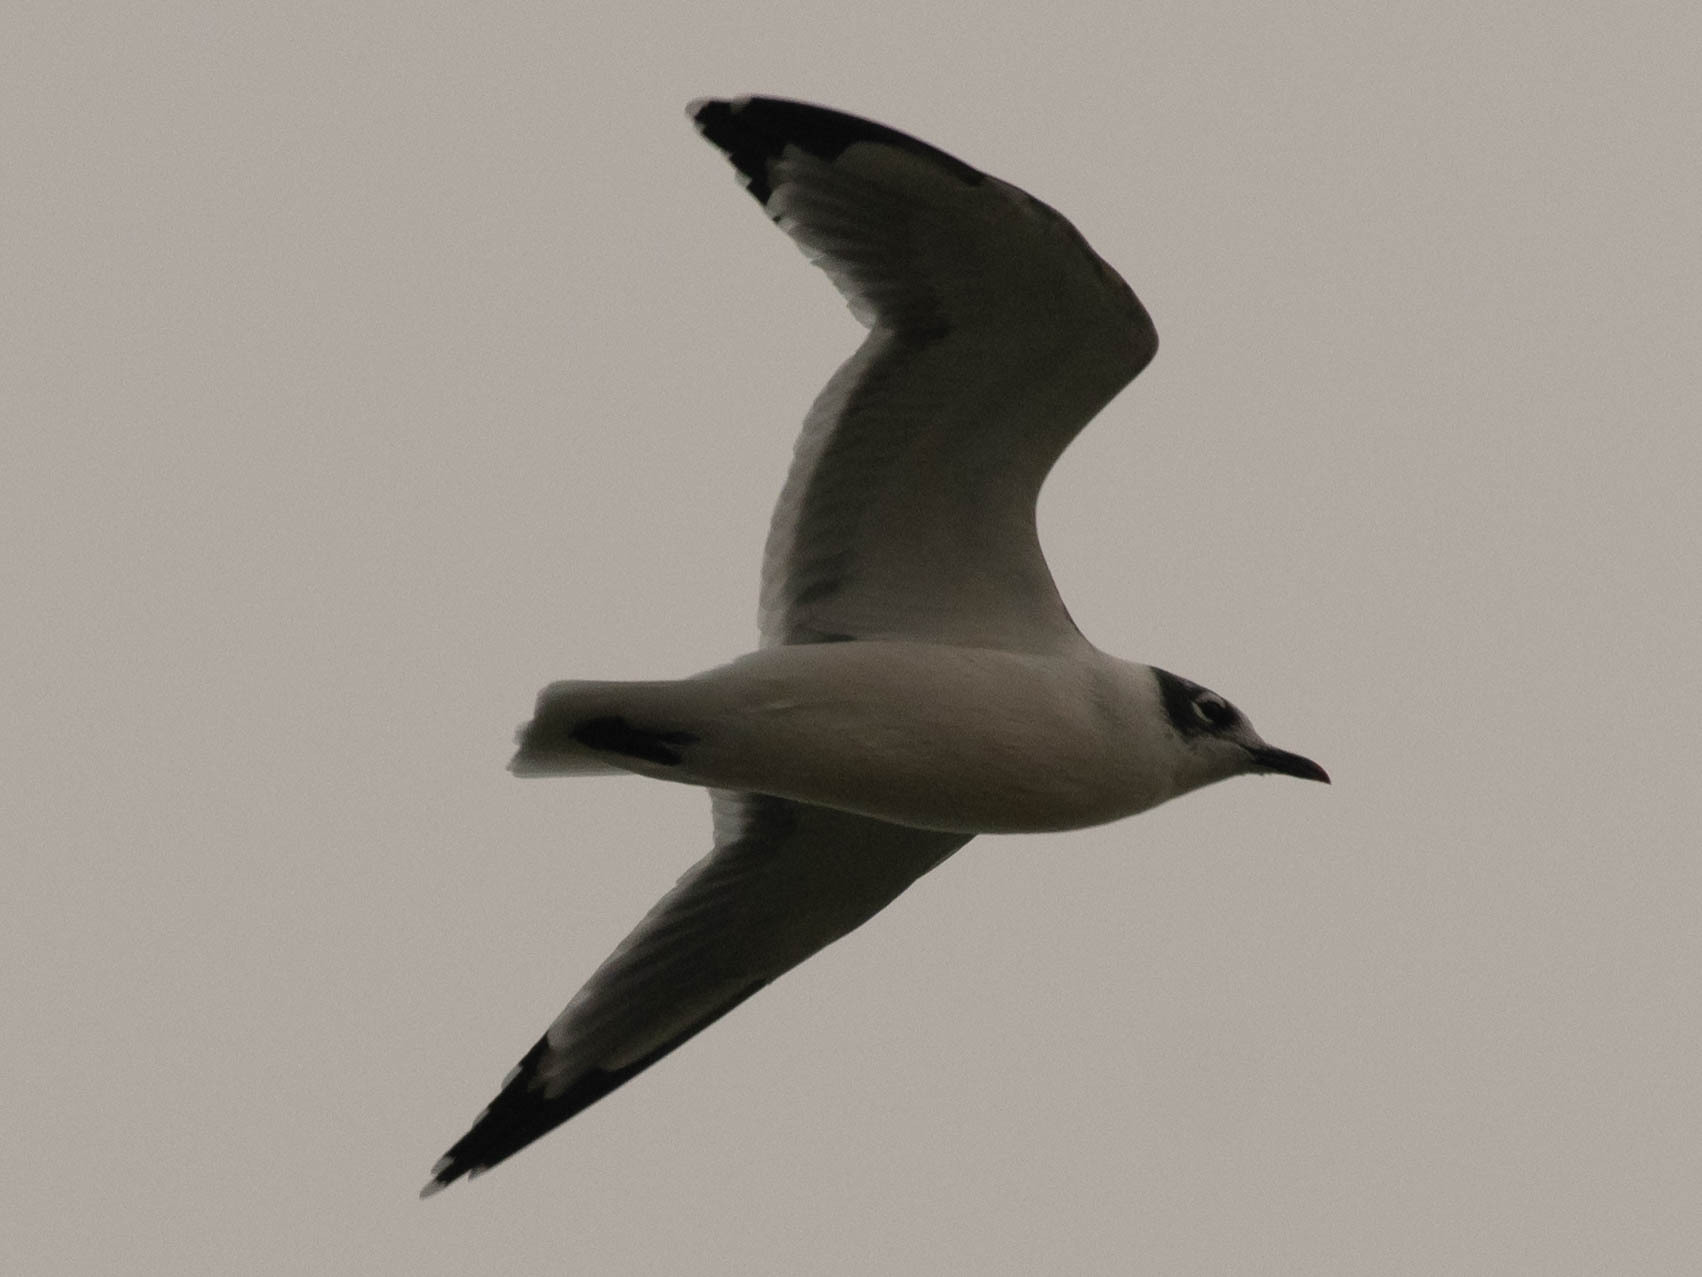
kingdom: Animalia
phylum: Chordata
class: Aves
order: Charadriiformes
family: Laridae
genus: Leucophaeus
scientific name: Leucophaeus pipixcan
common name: Franklin's gull
